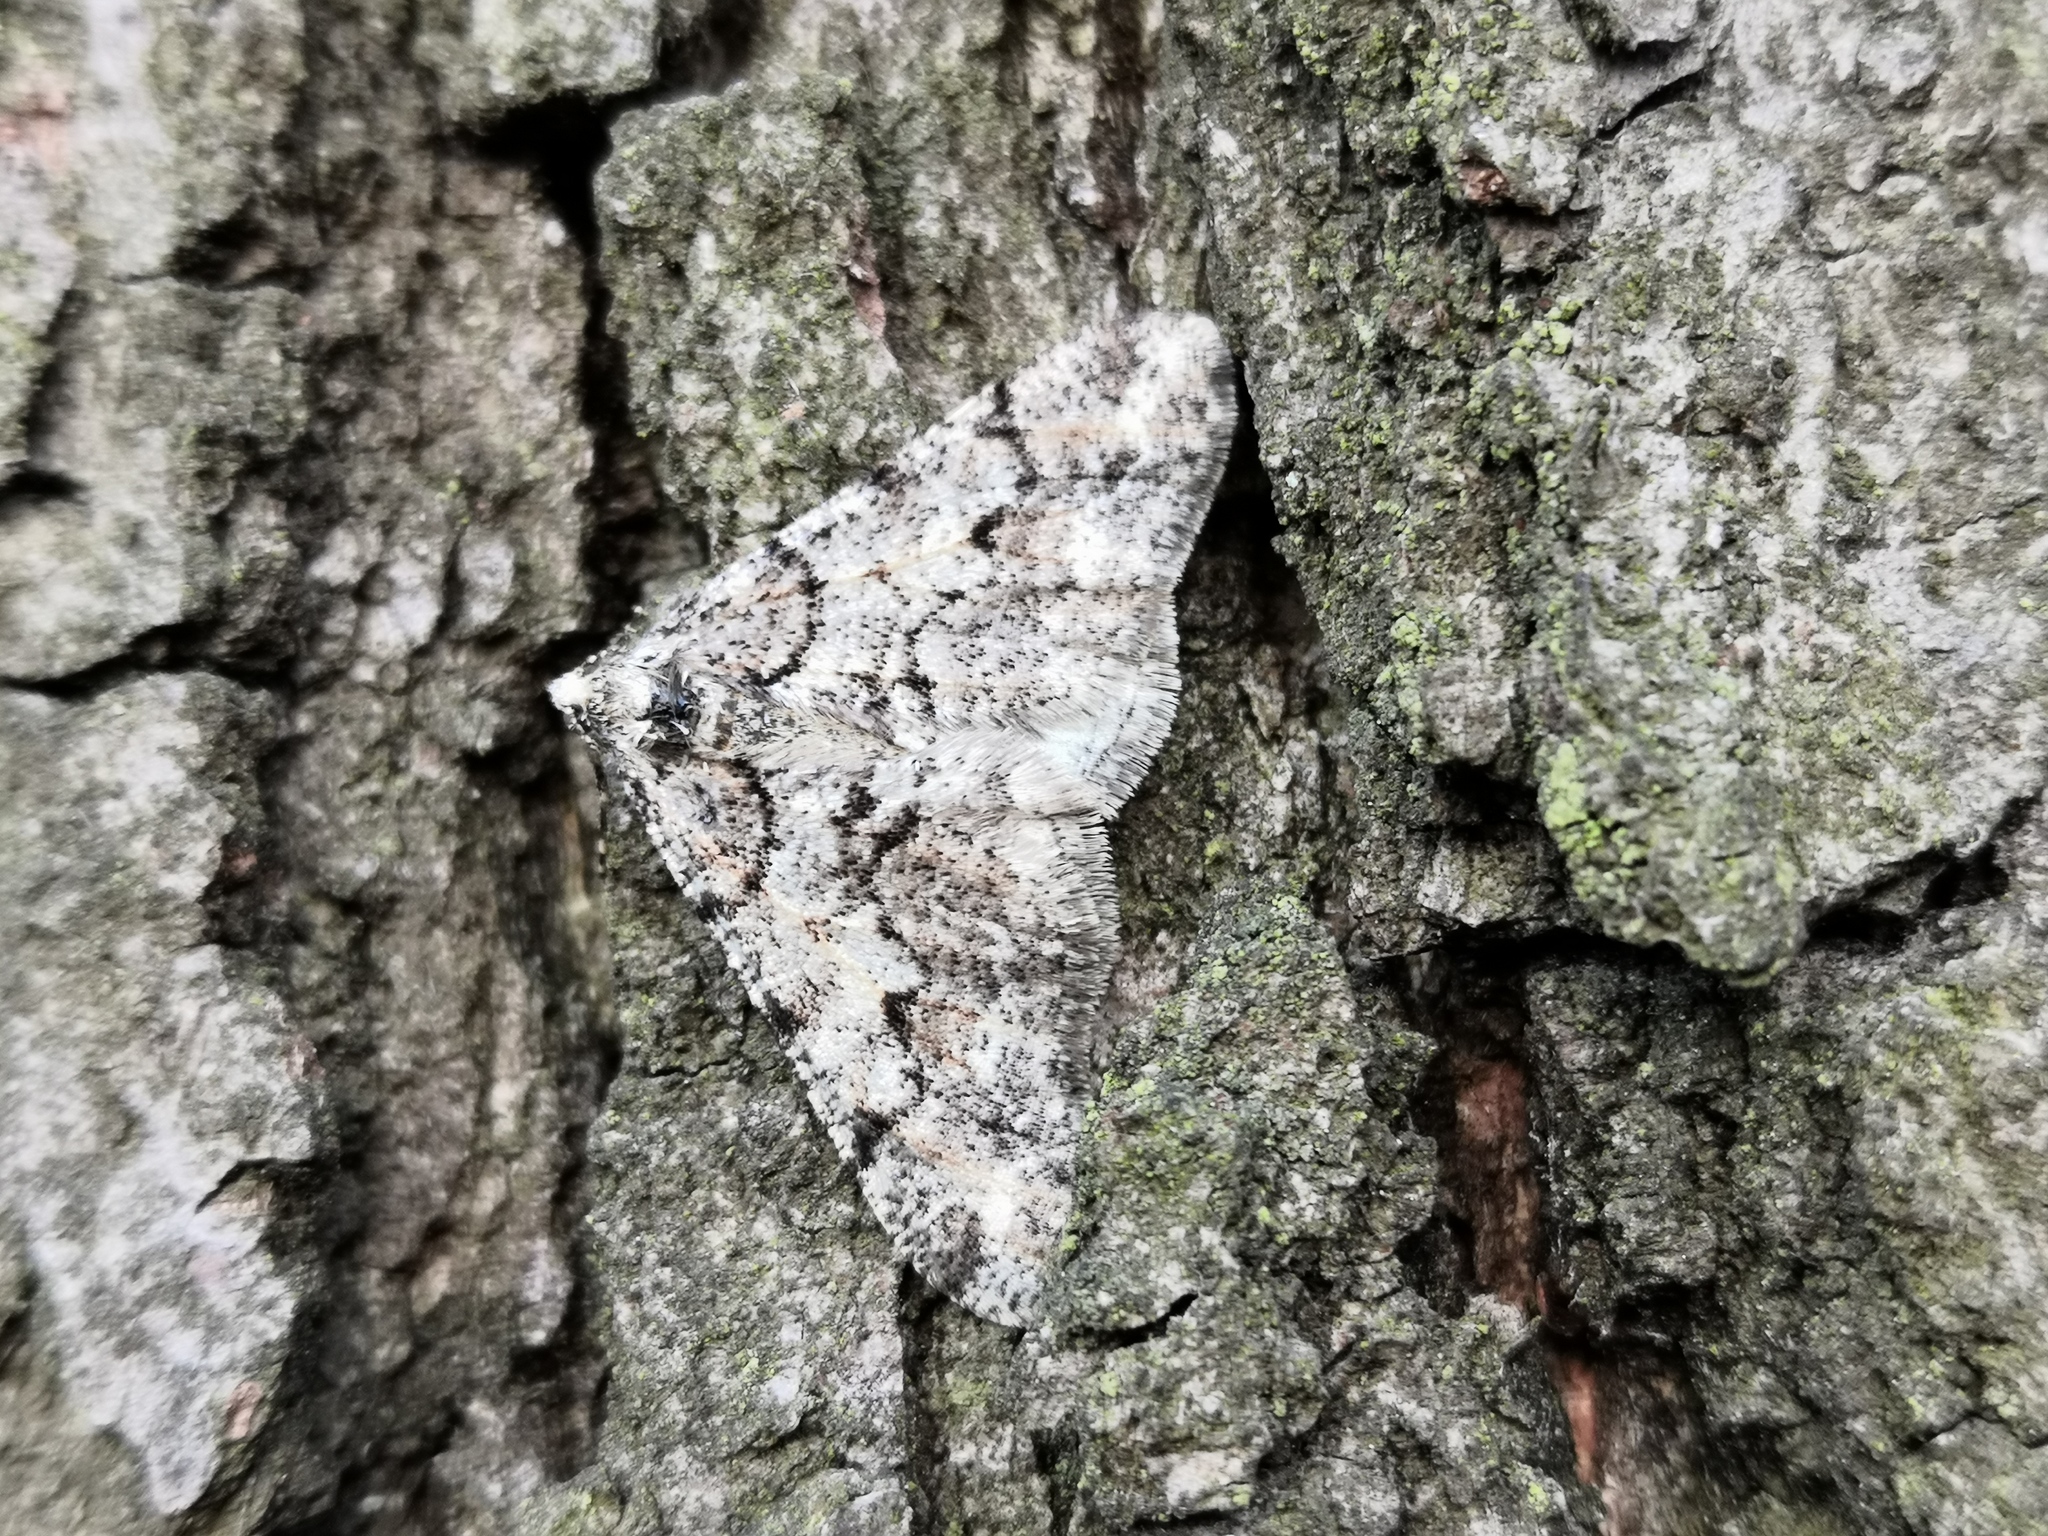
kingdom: Animalia
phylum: Arthropoda
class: Insecta
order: Lepidoptera
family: Geometridae
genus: Agriopis
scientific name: Agriopis leucophaearia
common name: Spring usher
